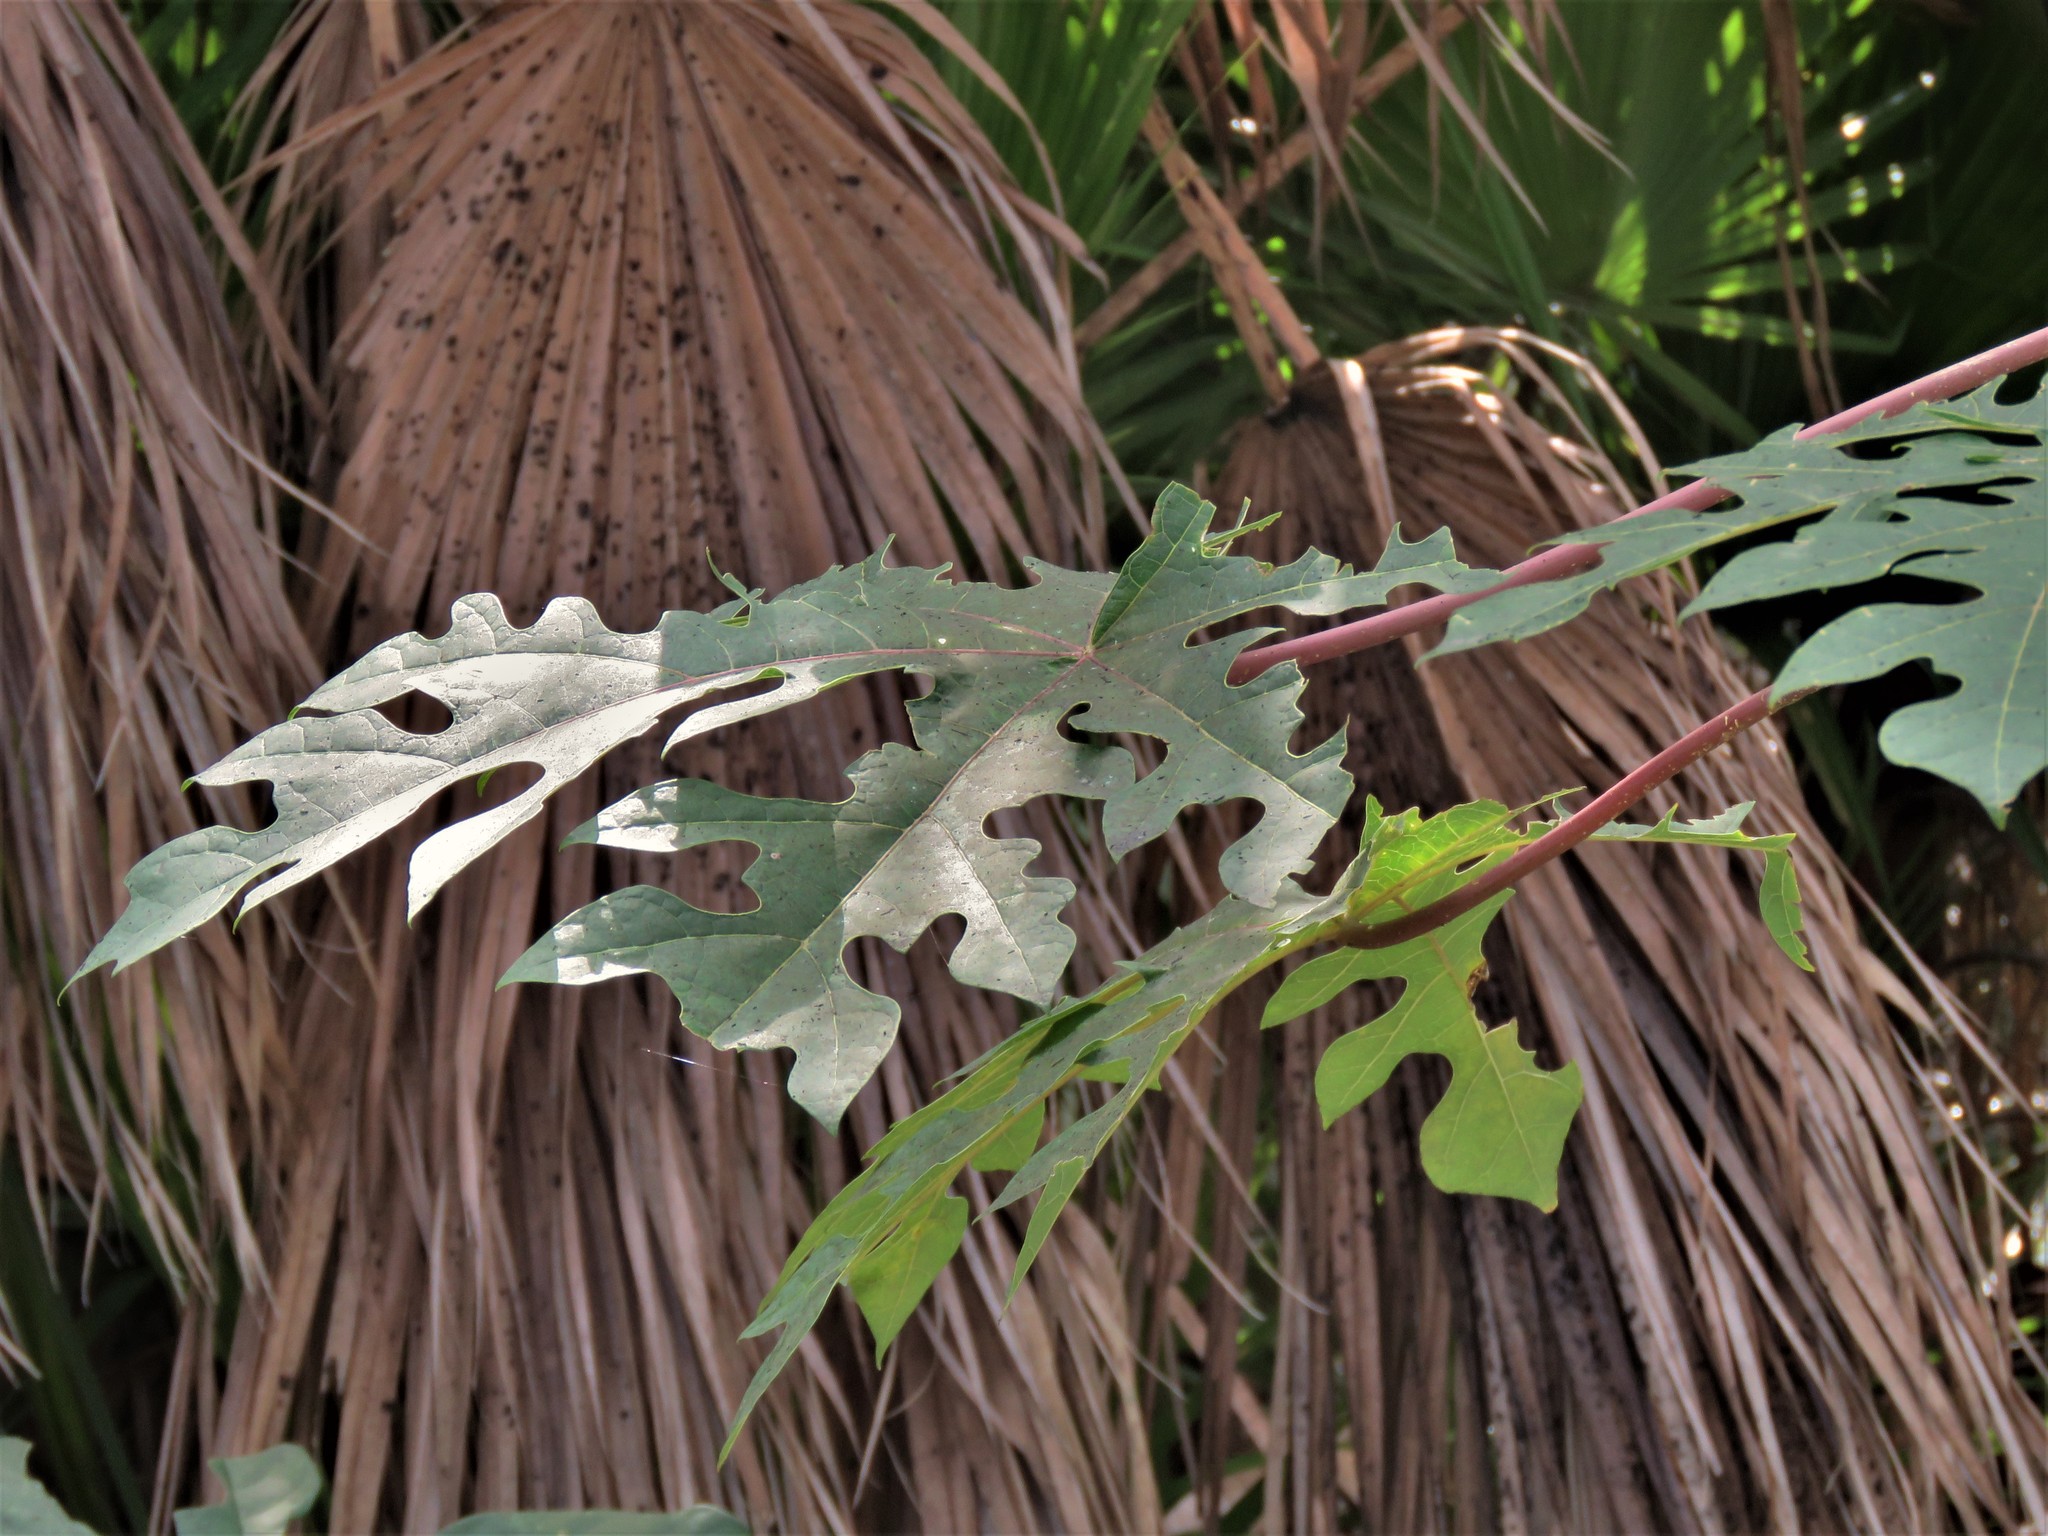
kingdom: Plantae
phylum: Tracheophyta
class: Magnoliopsida
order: Brassicales
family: Caricaceae
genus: Carica
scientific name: Carica papaya
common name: Papaya
